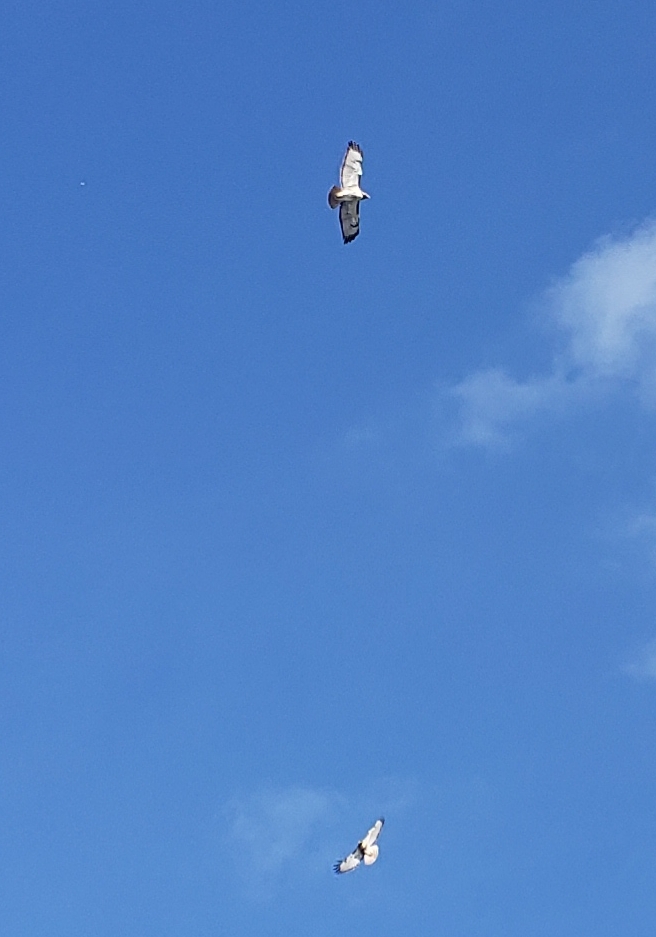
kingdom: Animalia
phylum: Chordata
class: Aves
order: Accipitriformes
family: Accipitridae
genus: Buteo
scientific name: Buteo jamaicensis
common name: Red-tailed hawk
